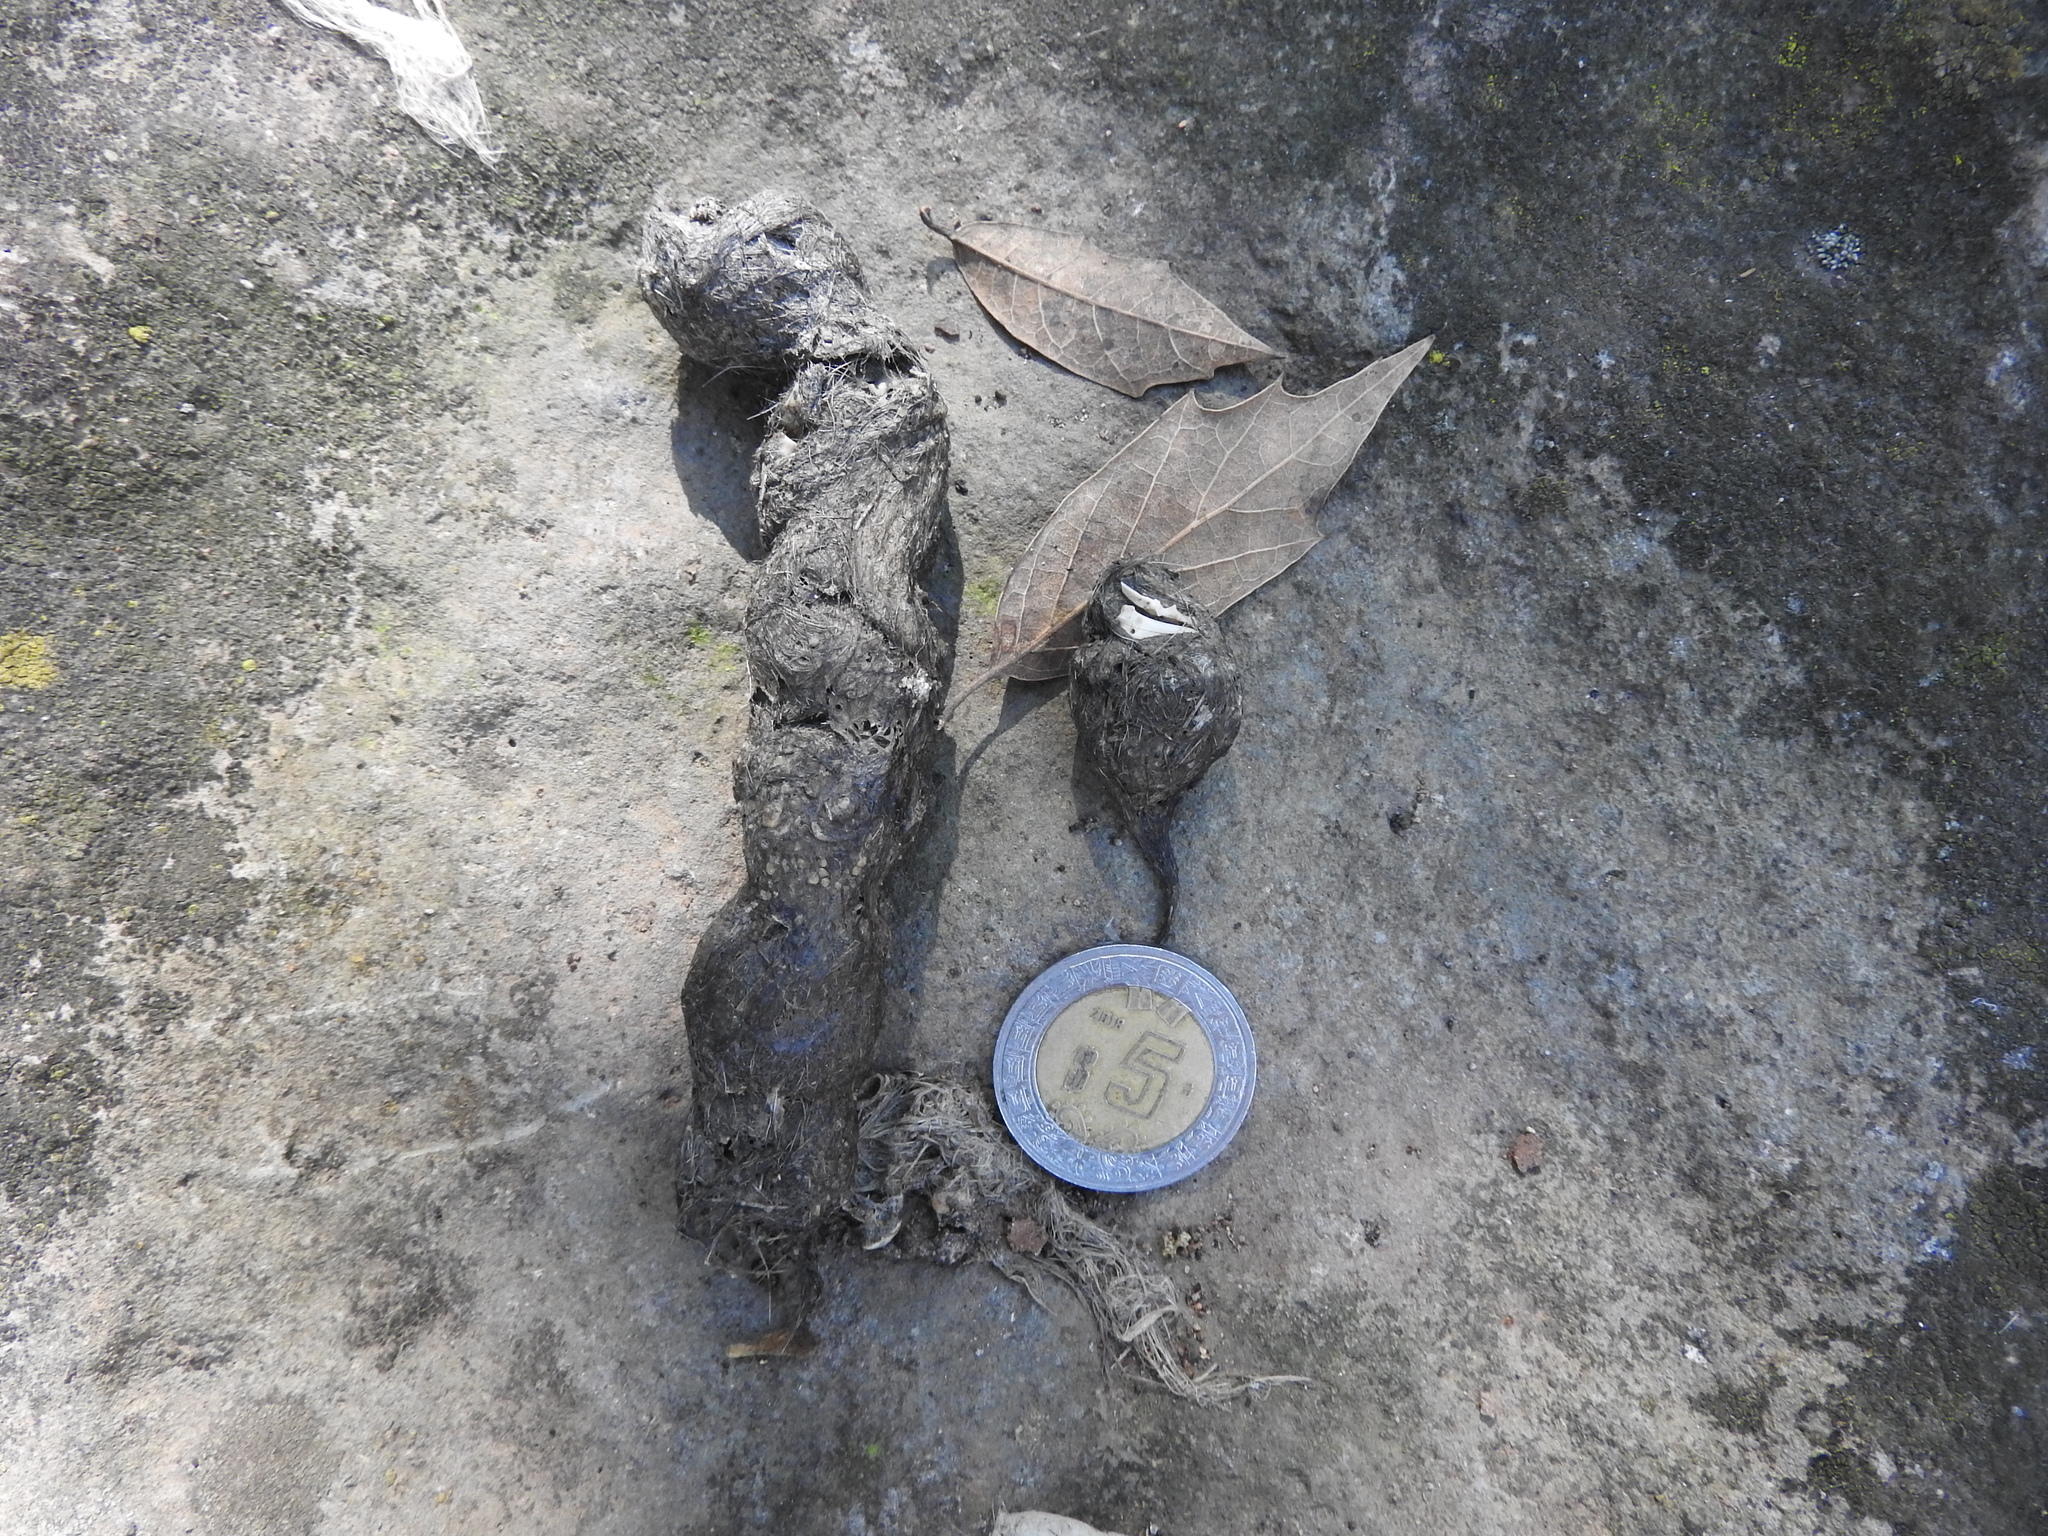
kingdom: Animalia
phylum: Chordata
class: Mammalia
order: Carnivora
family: Felidae
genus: Lynx
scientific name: Lynx rufus
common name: Bobcat
